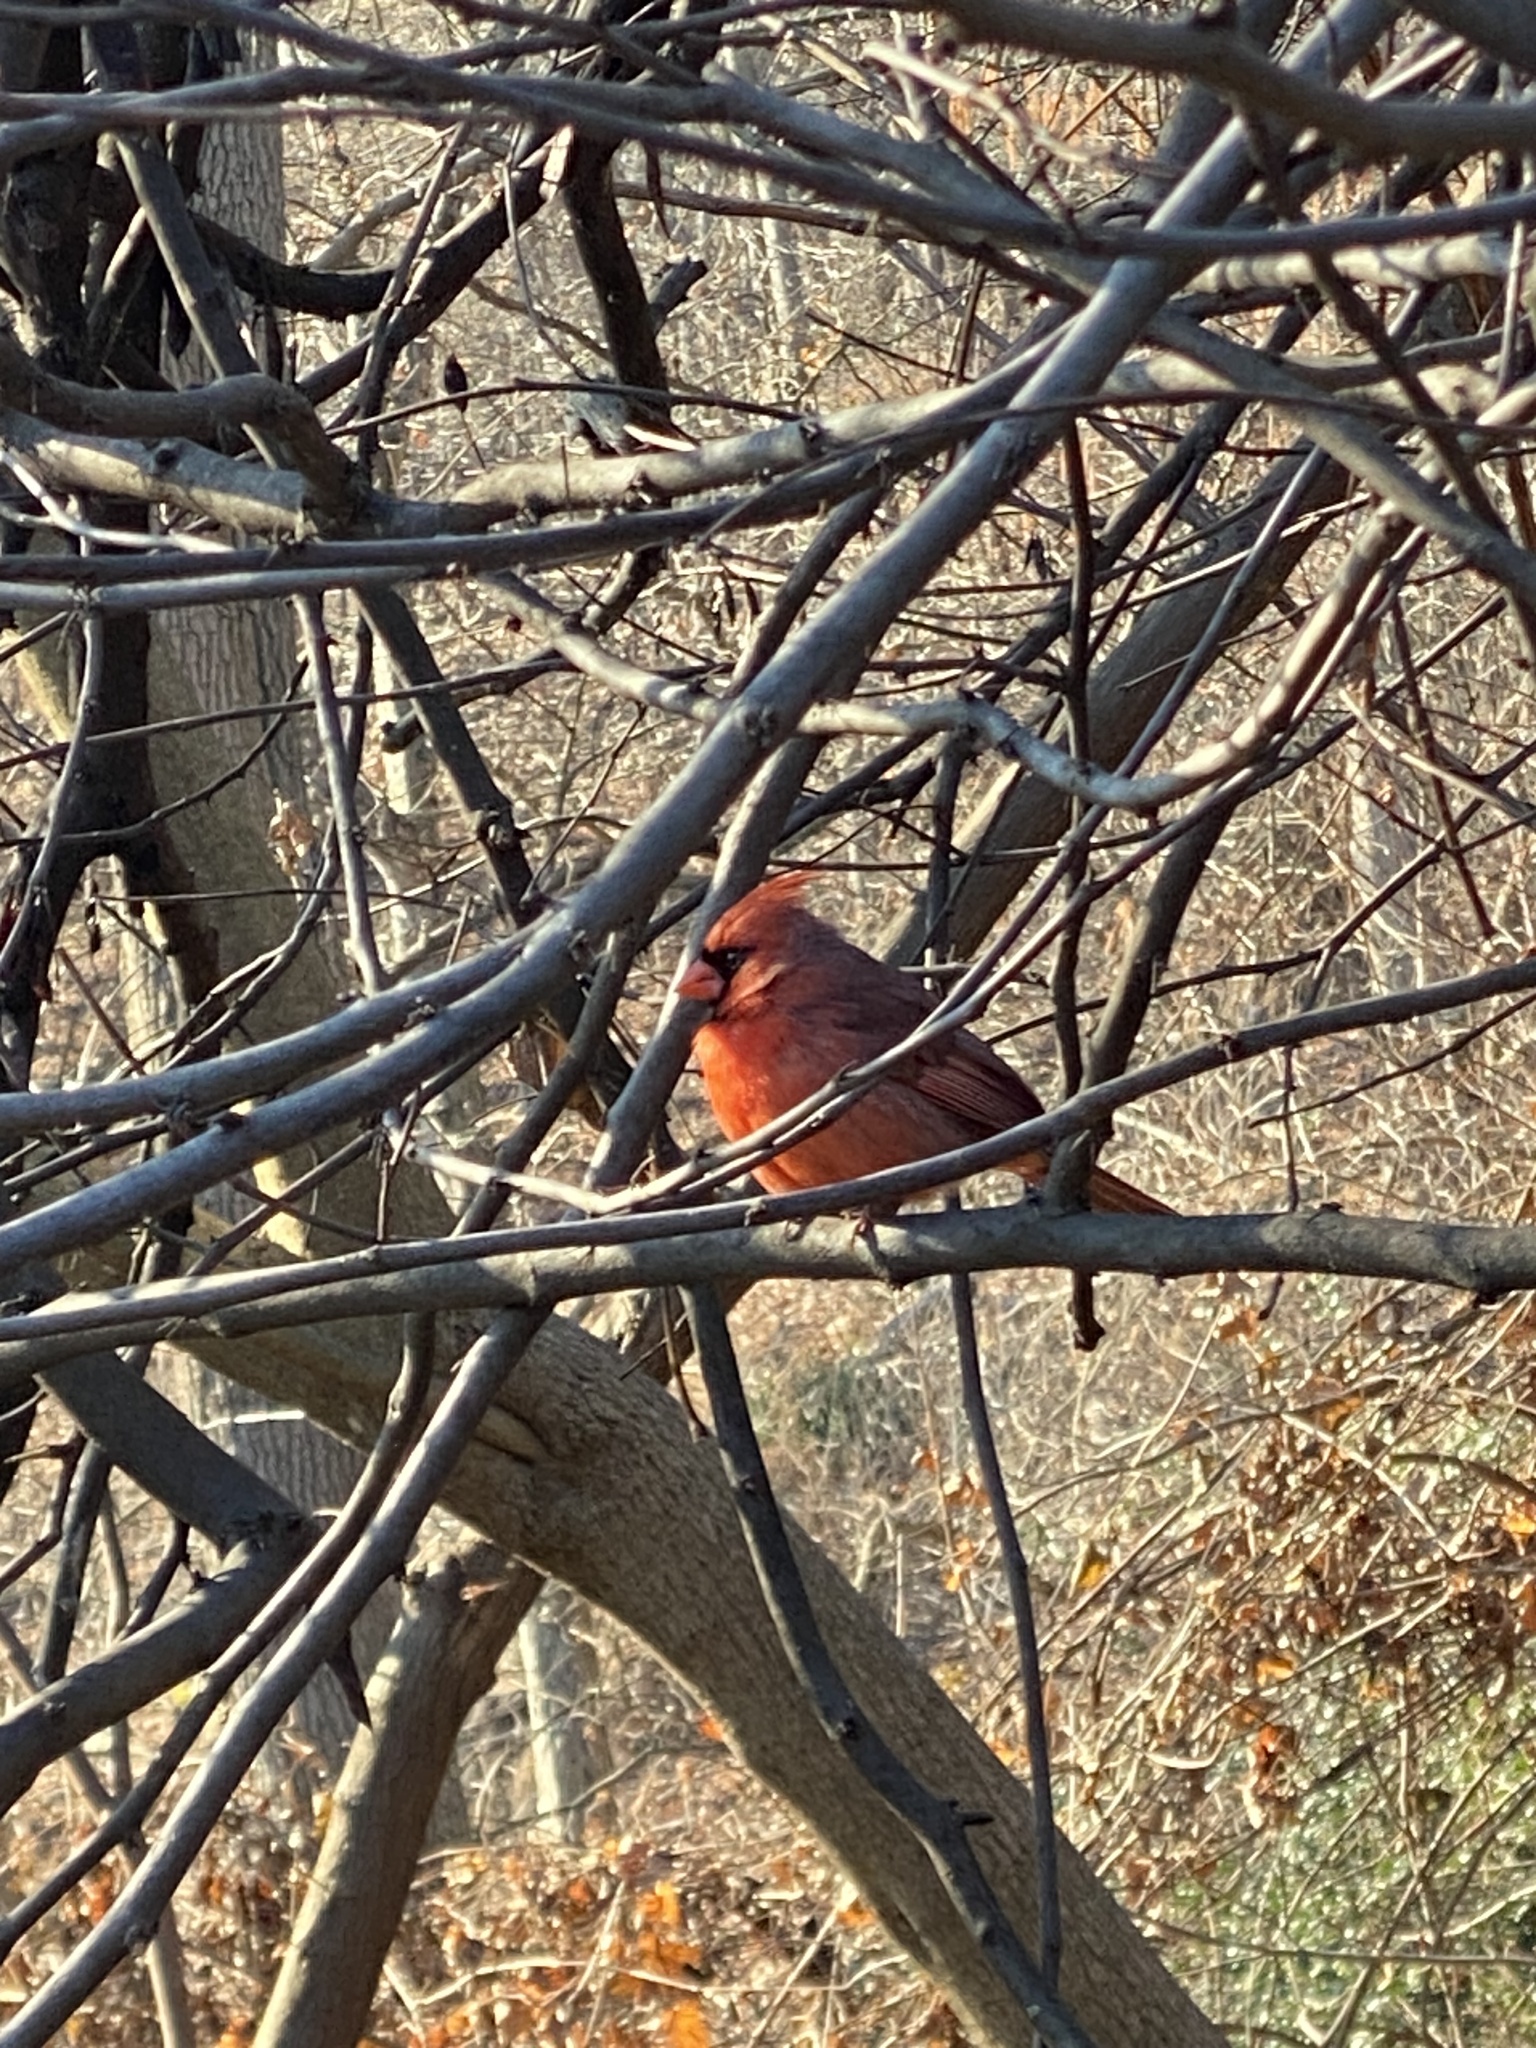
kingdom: Animalia
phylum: Chordata
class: Aves
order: Passeriformes
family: Cardinalidae
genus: Cardinalis
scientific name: Cardinalis cardinalis
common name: Northern cardinal
